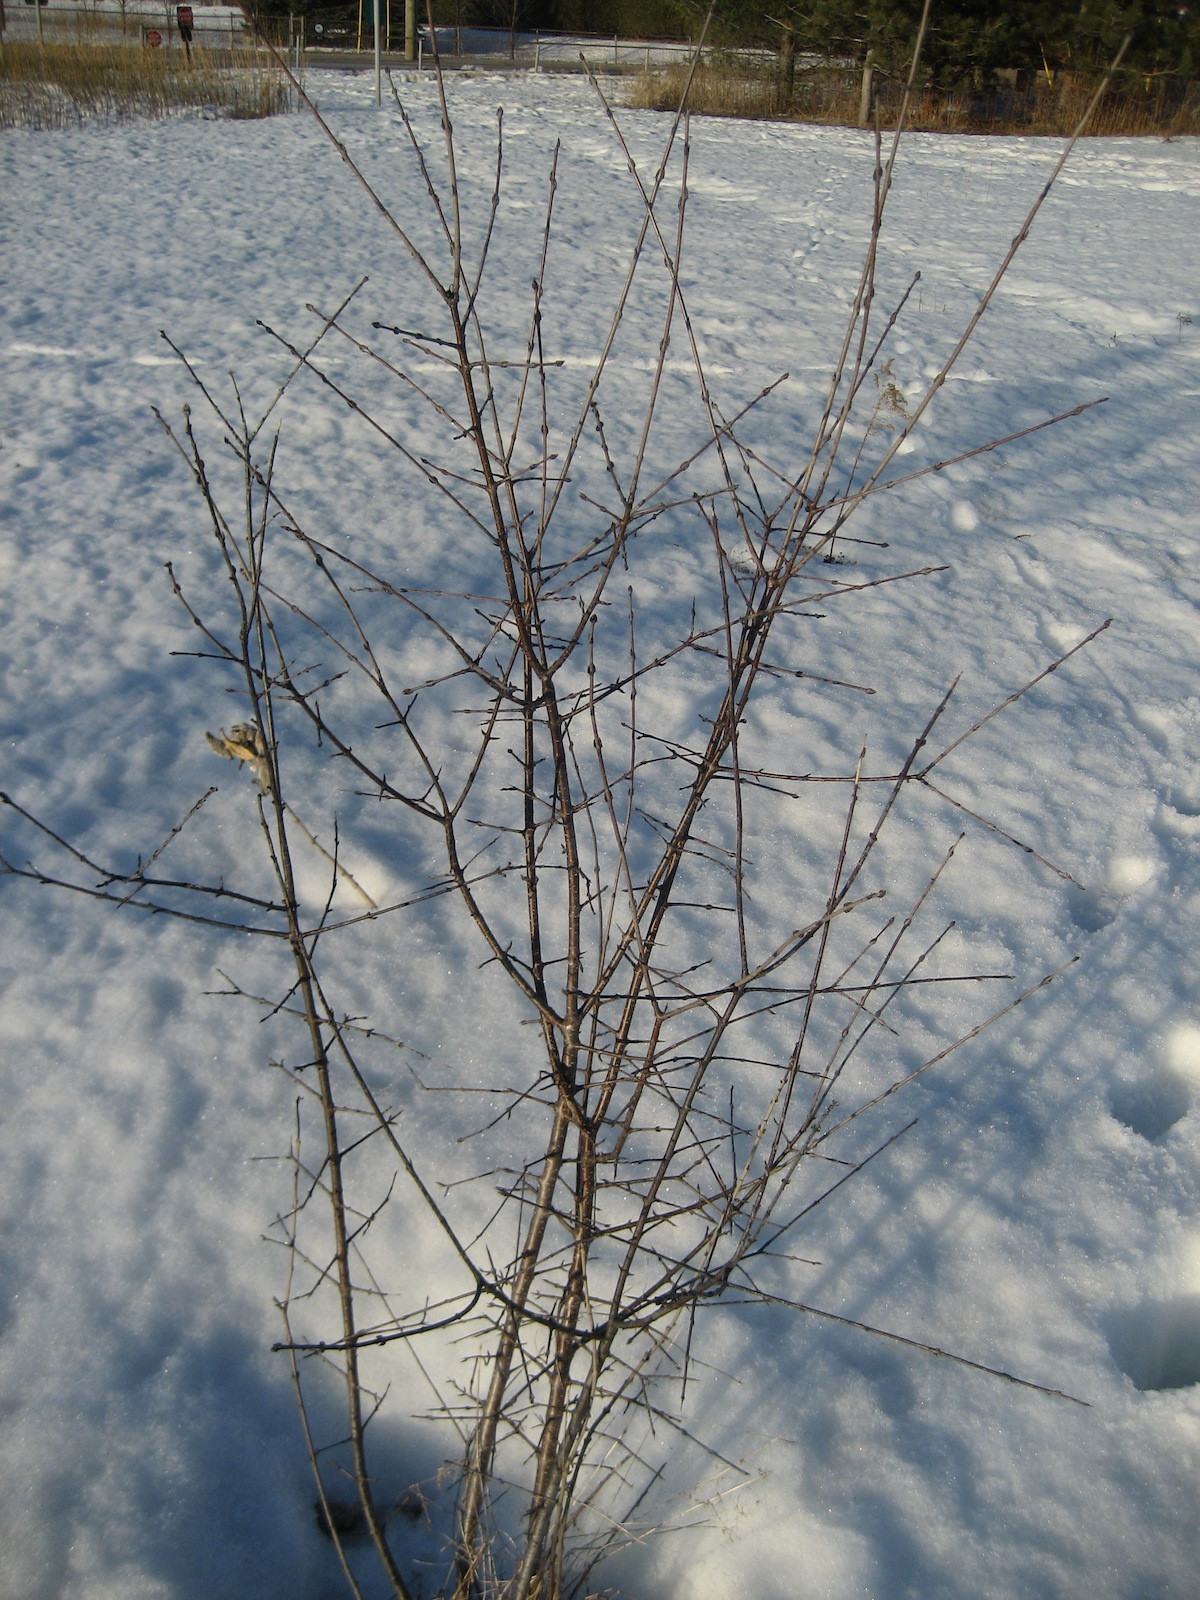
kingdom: Plantae
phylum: Tracheophyta
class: Magnoliopsida
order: Rosales
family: Rhamnaceae
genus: Rhamnus
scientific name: Rhamnus cathartica
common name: Common buckthorn
